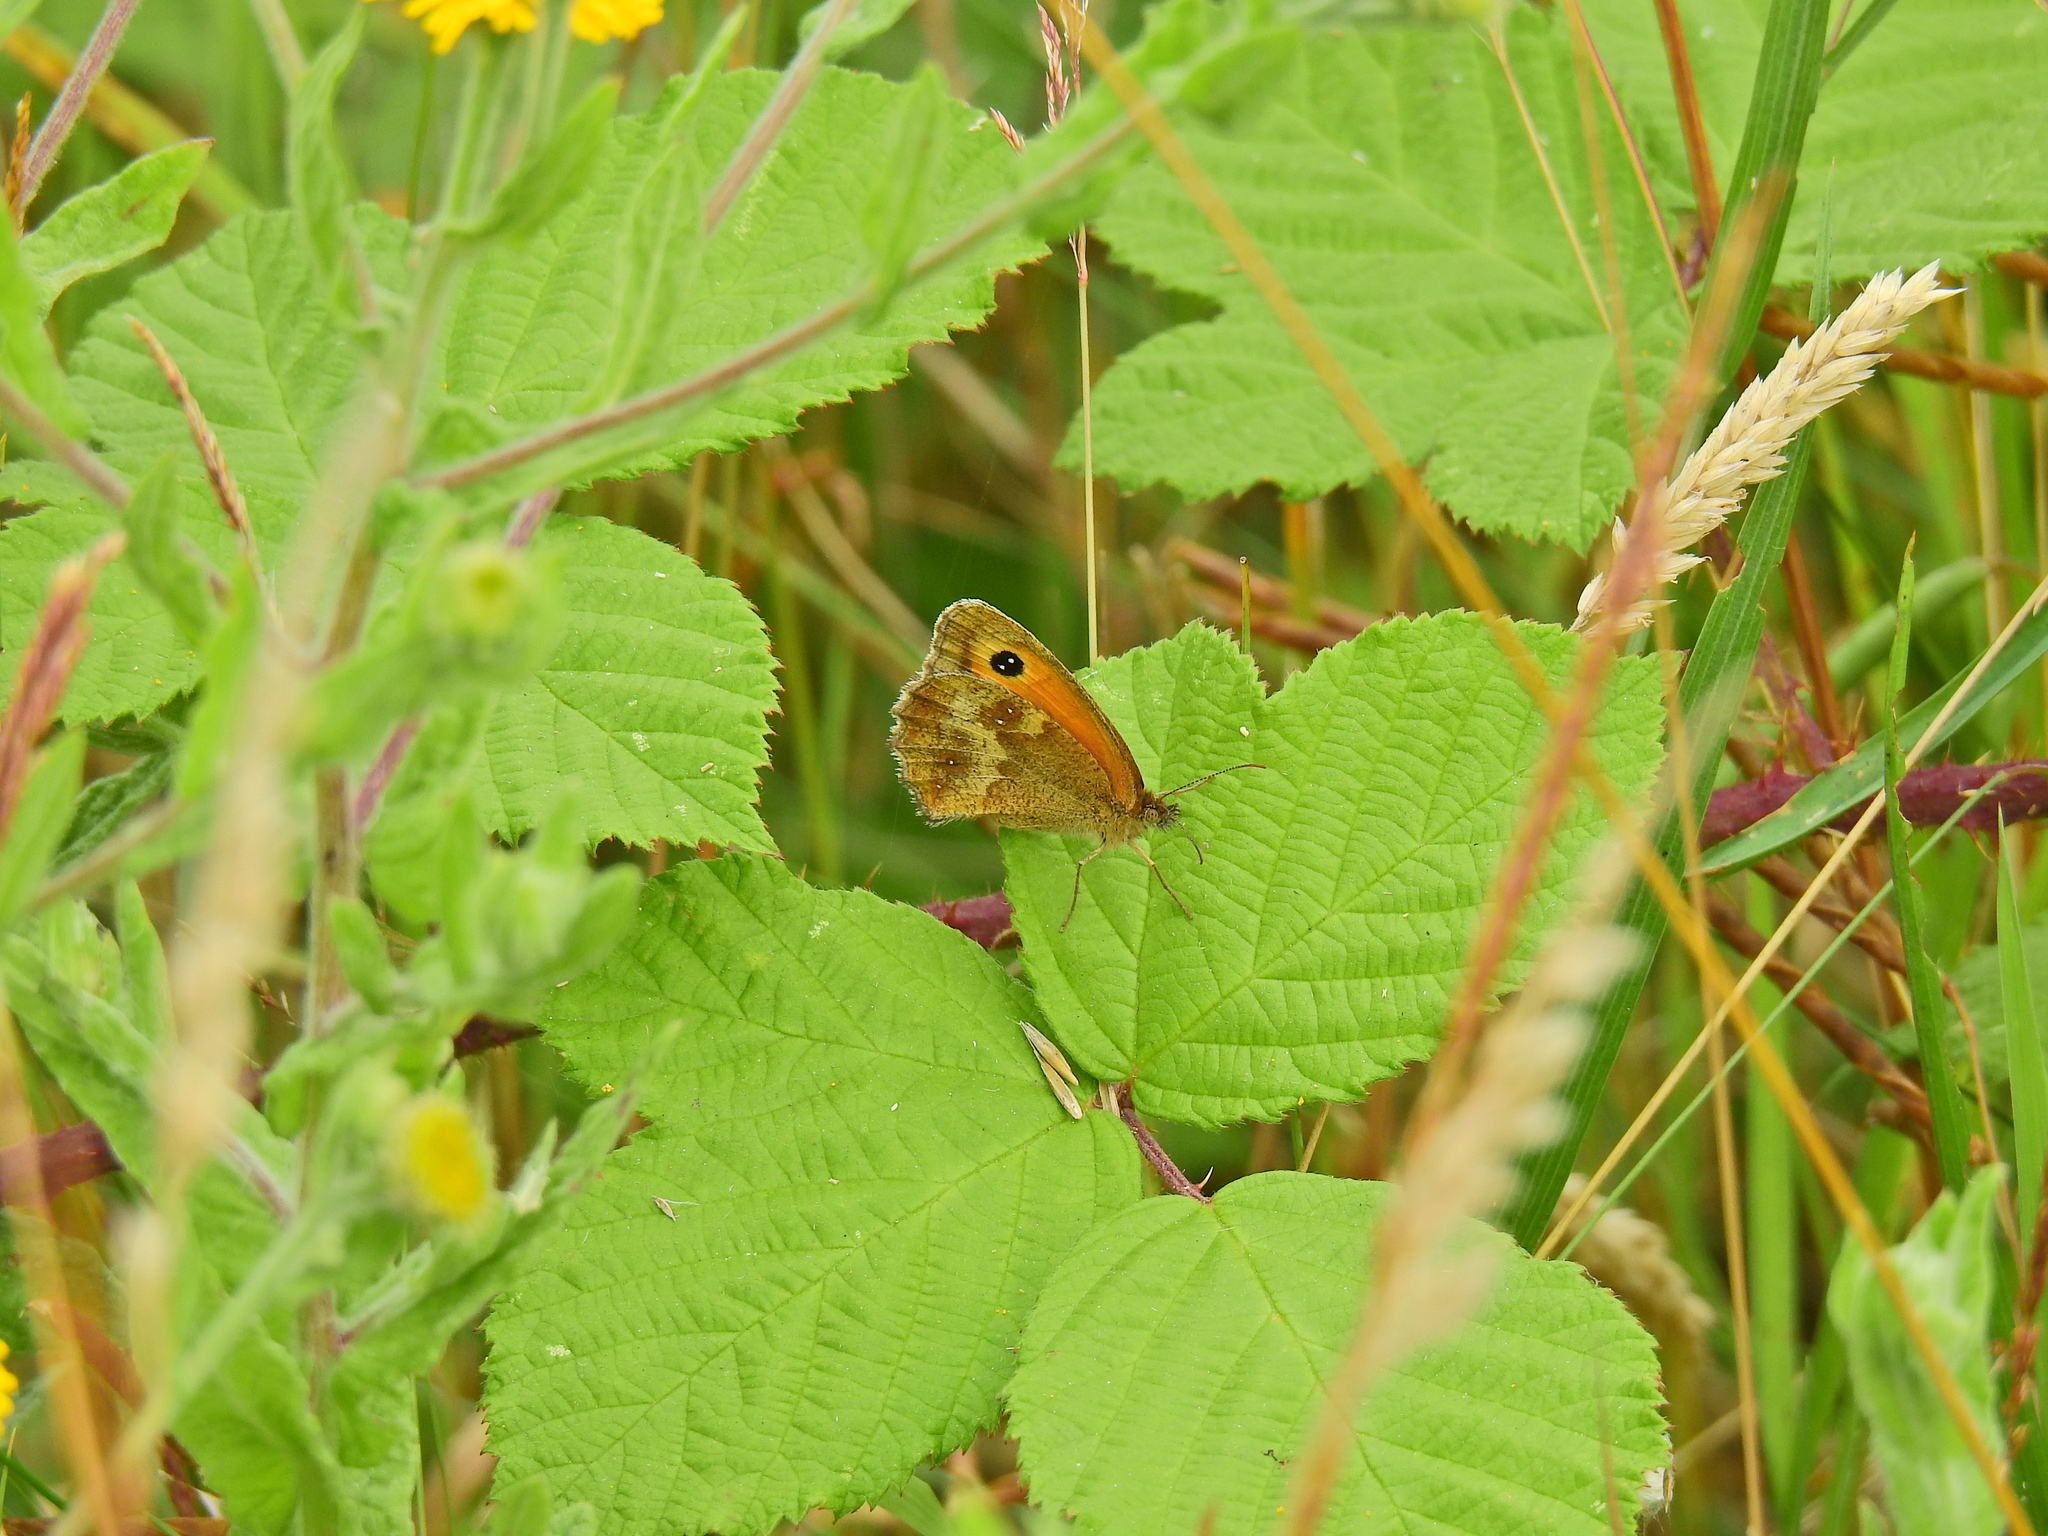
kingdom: Animalia
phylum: Arthropoda
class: Insecta
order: Lepidoptera
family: Nymphalidae
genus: Pyronia
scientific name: Pyronia tithonus
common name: Gatekeeper
